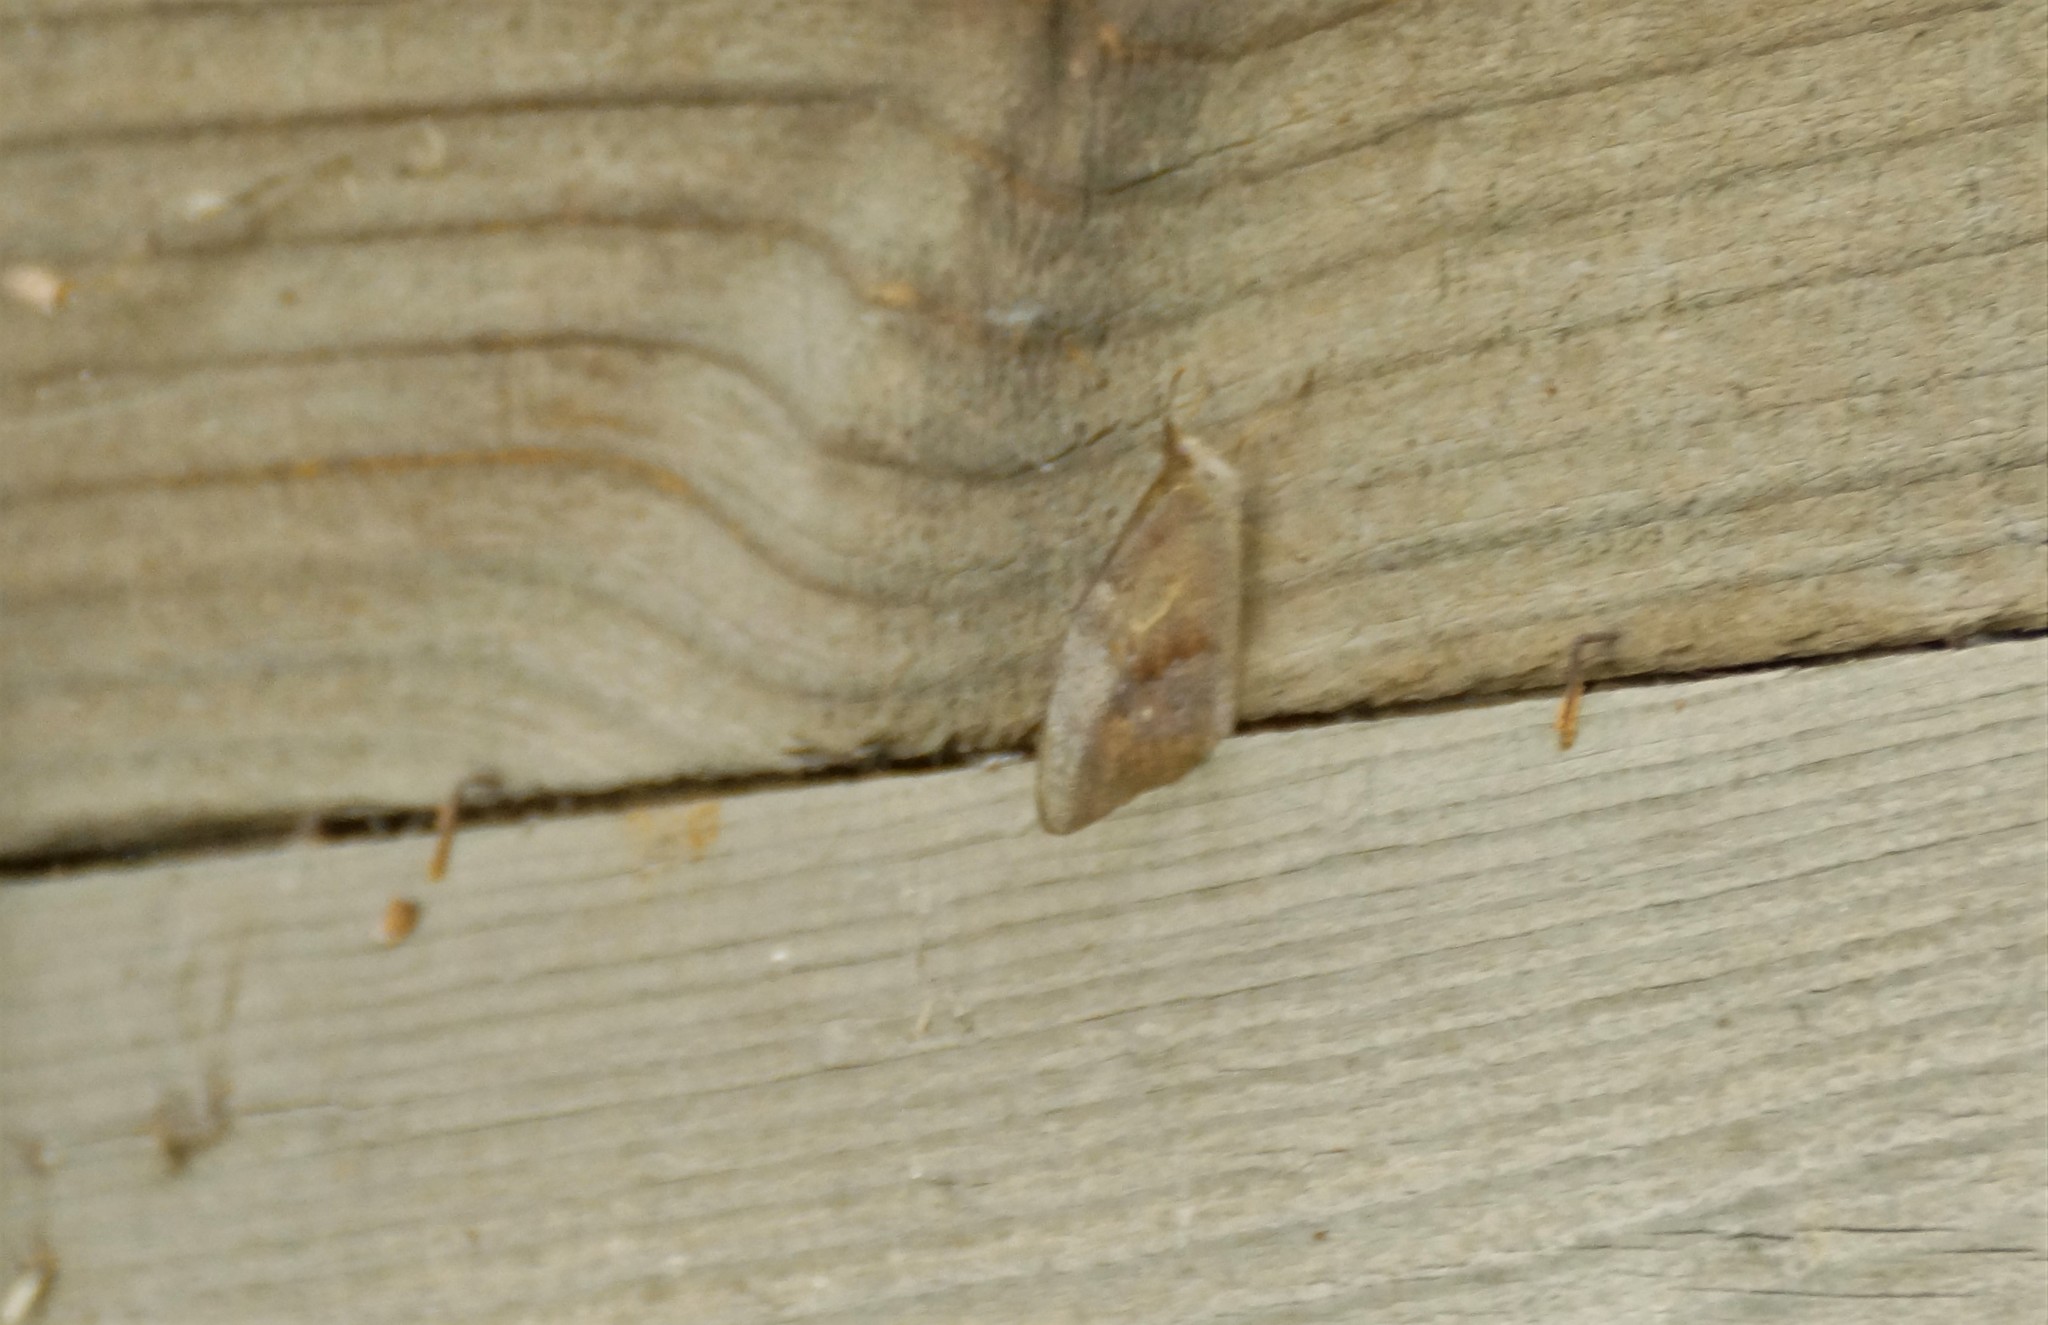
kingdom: Animalia
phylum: Arthropoda
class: Insecta
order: Lepidoptera
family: Nymphalidae
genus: Heteronympha
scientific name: Heteronympha merope
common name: Common brown
